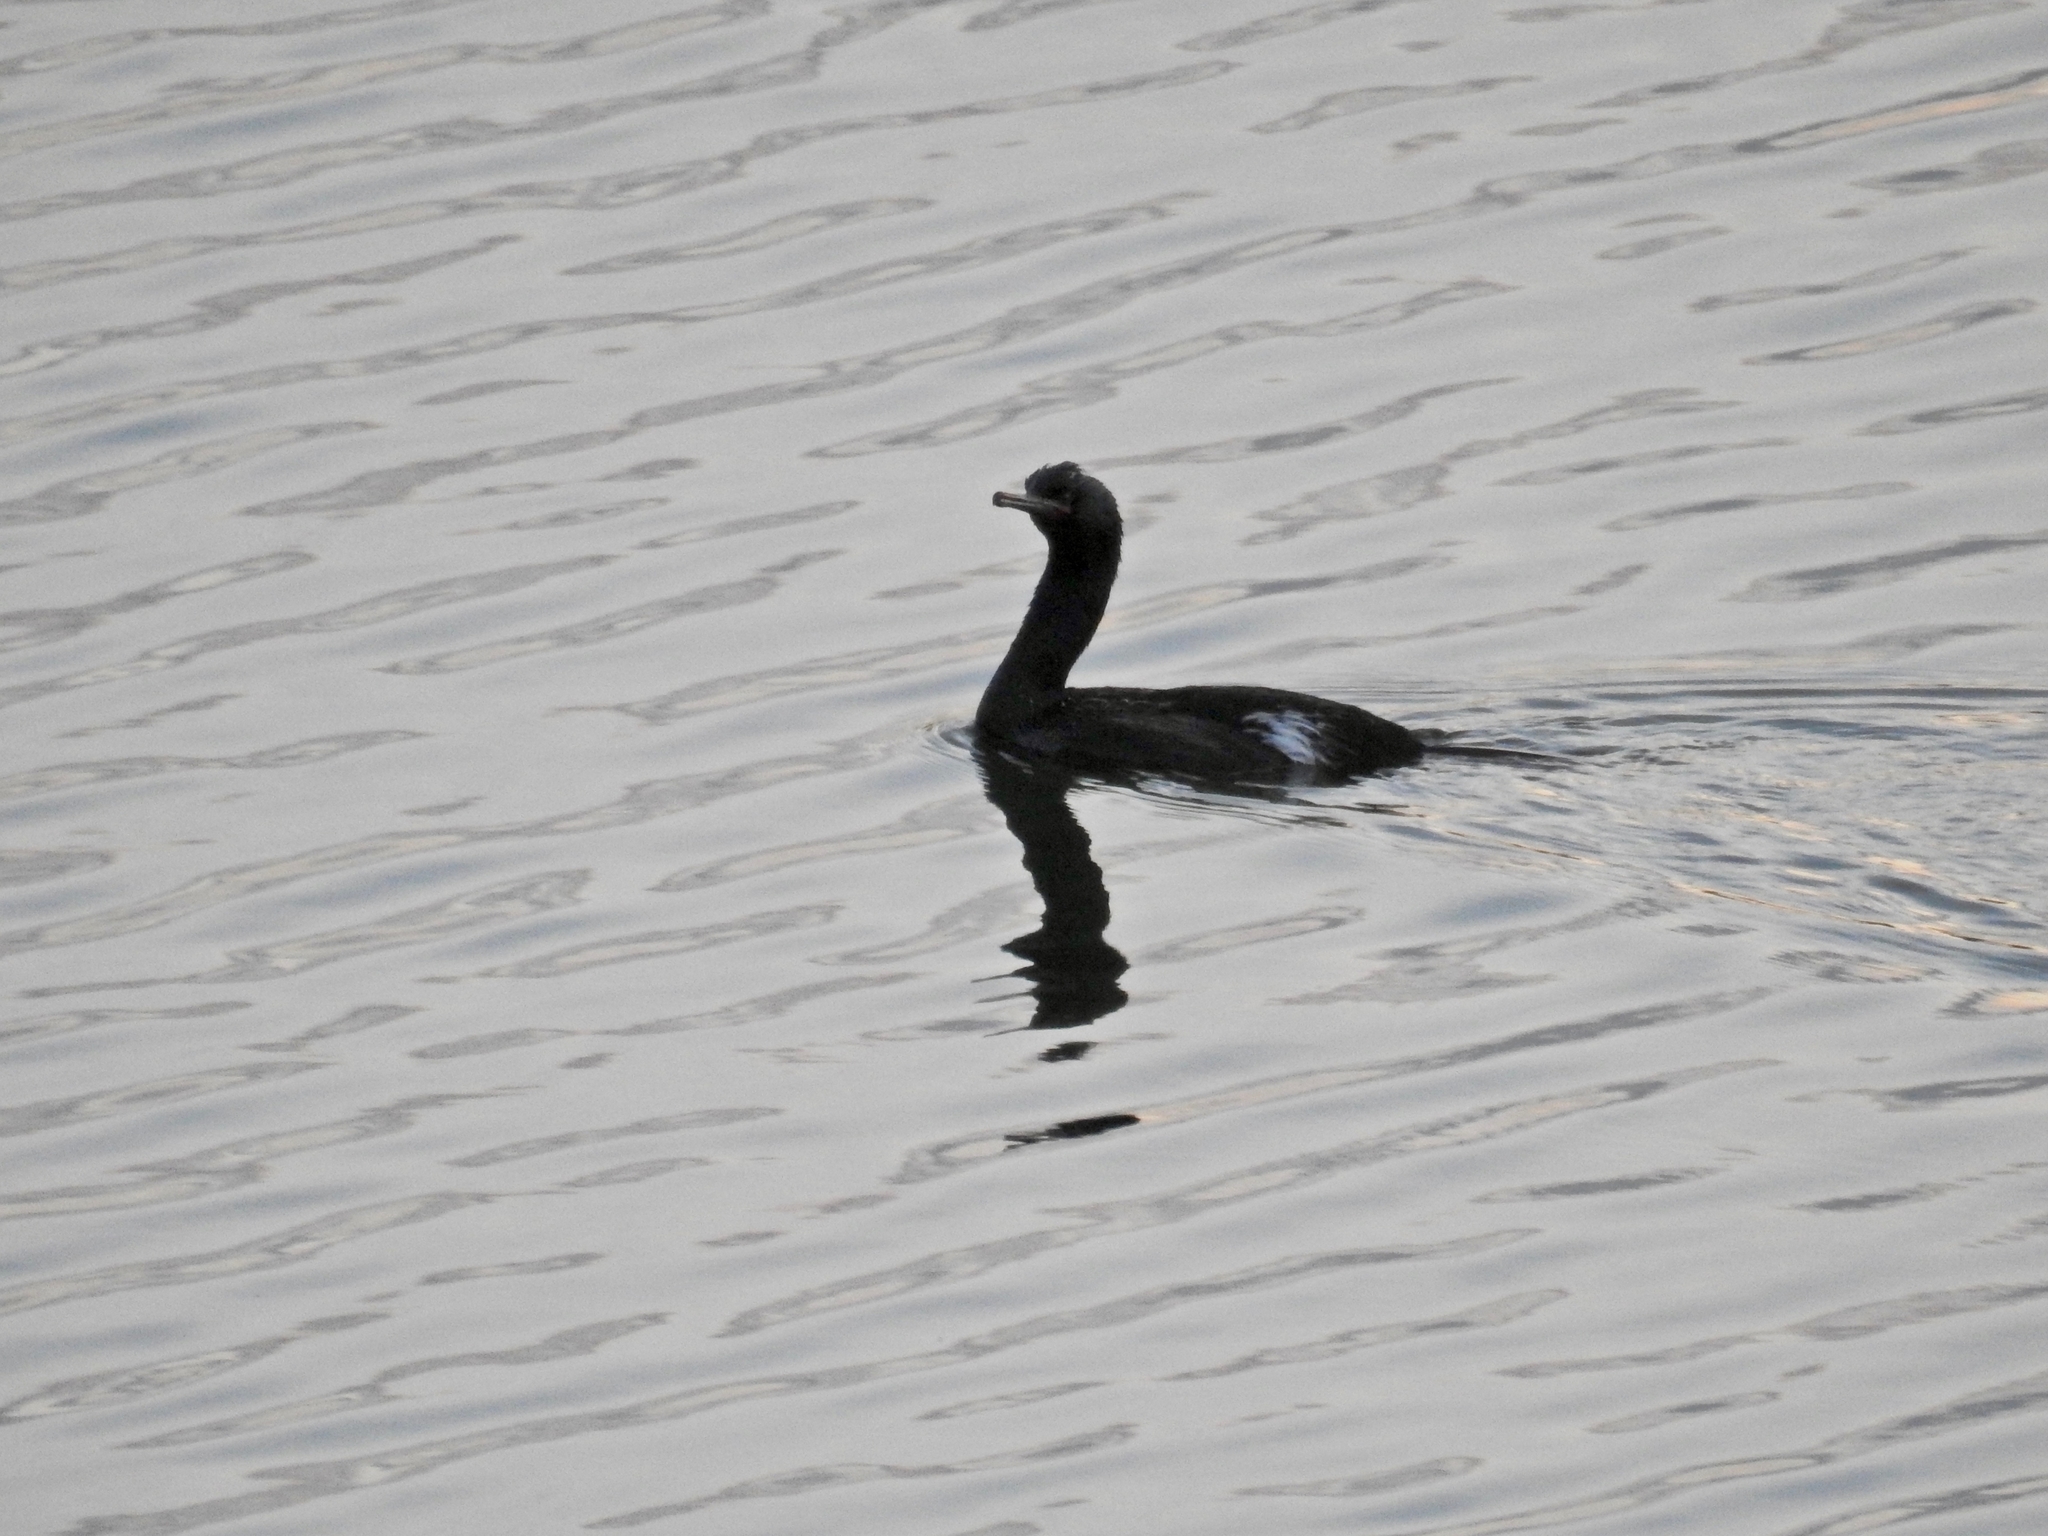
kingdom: Animalia
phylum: Chordata
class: Aves
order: Suliformes
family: Phalacrocoracidae
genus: Phalacrocorax
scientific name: Phalacrocorax pelagicus
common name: Pelagic cormorant
